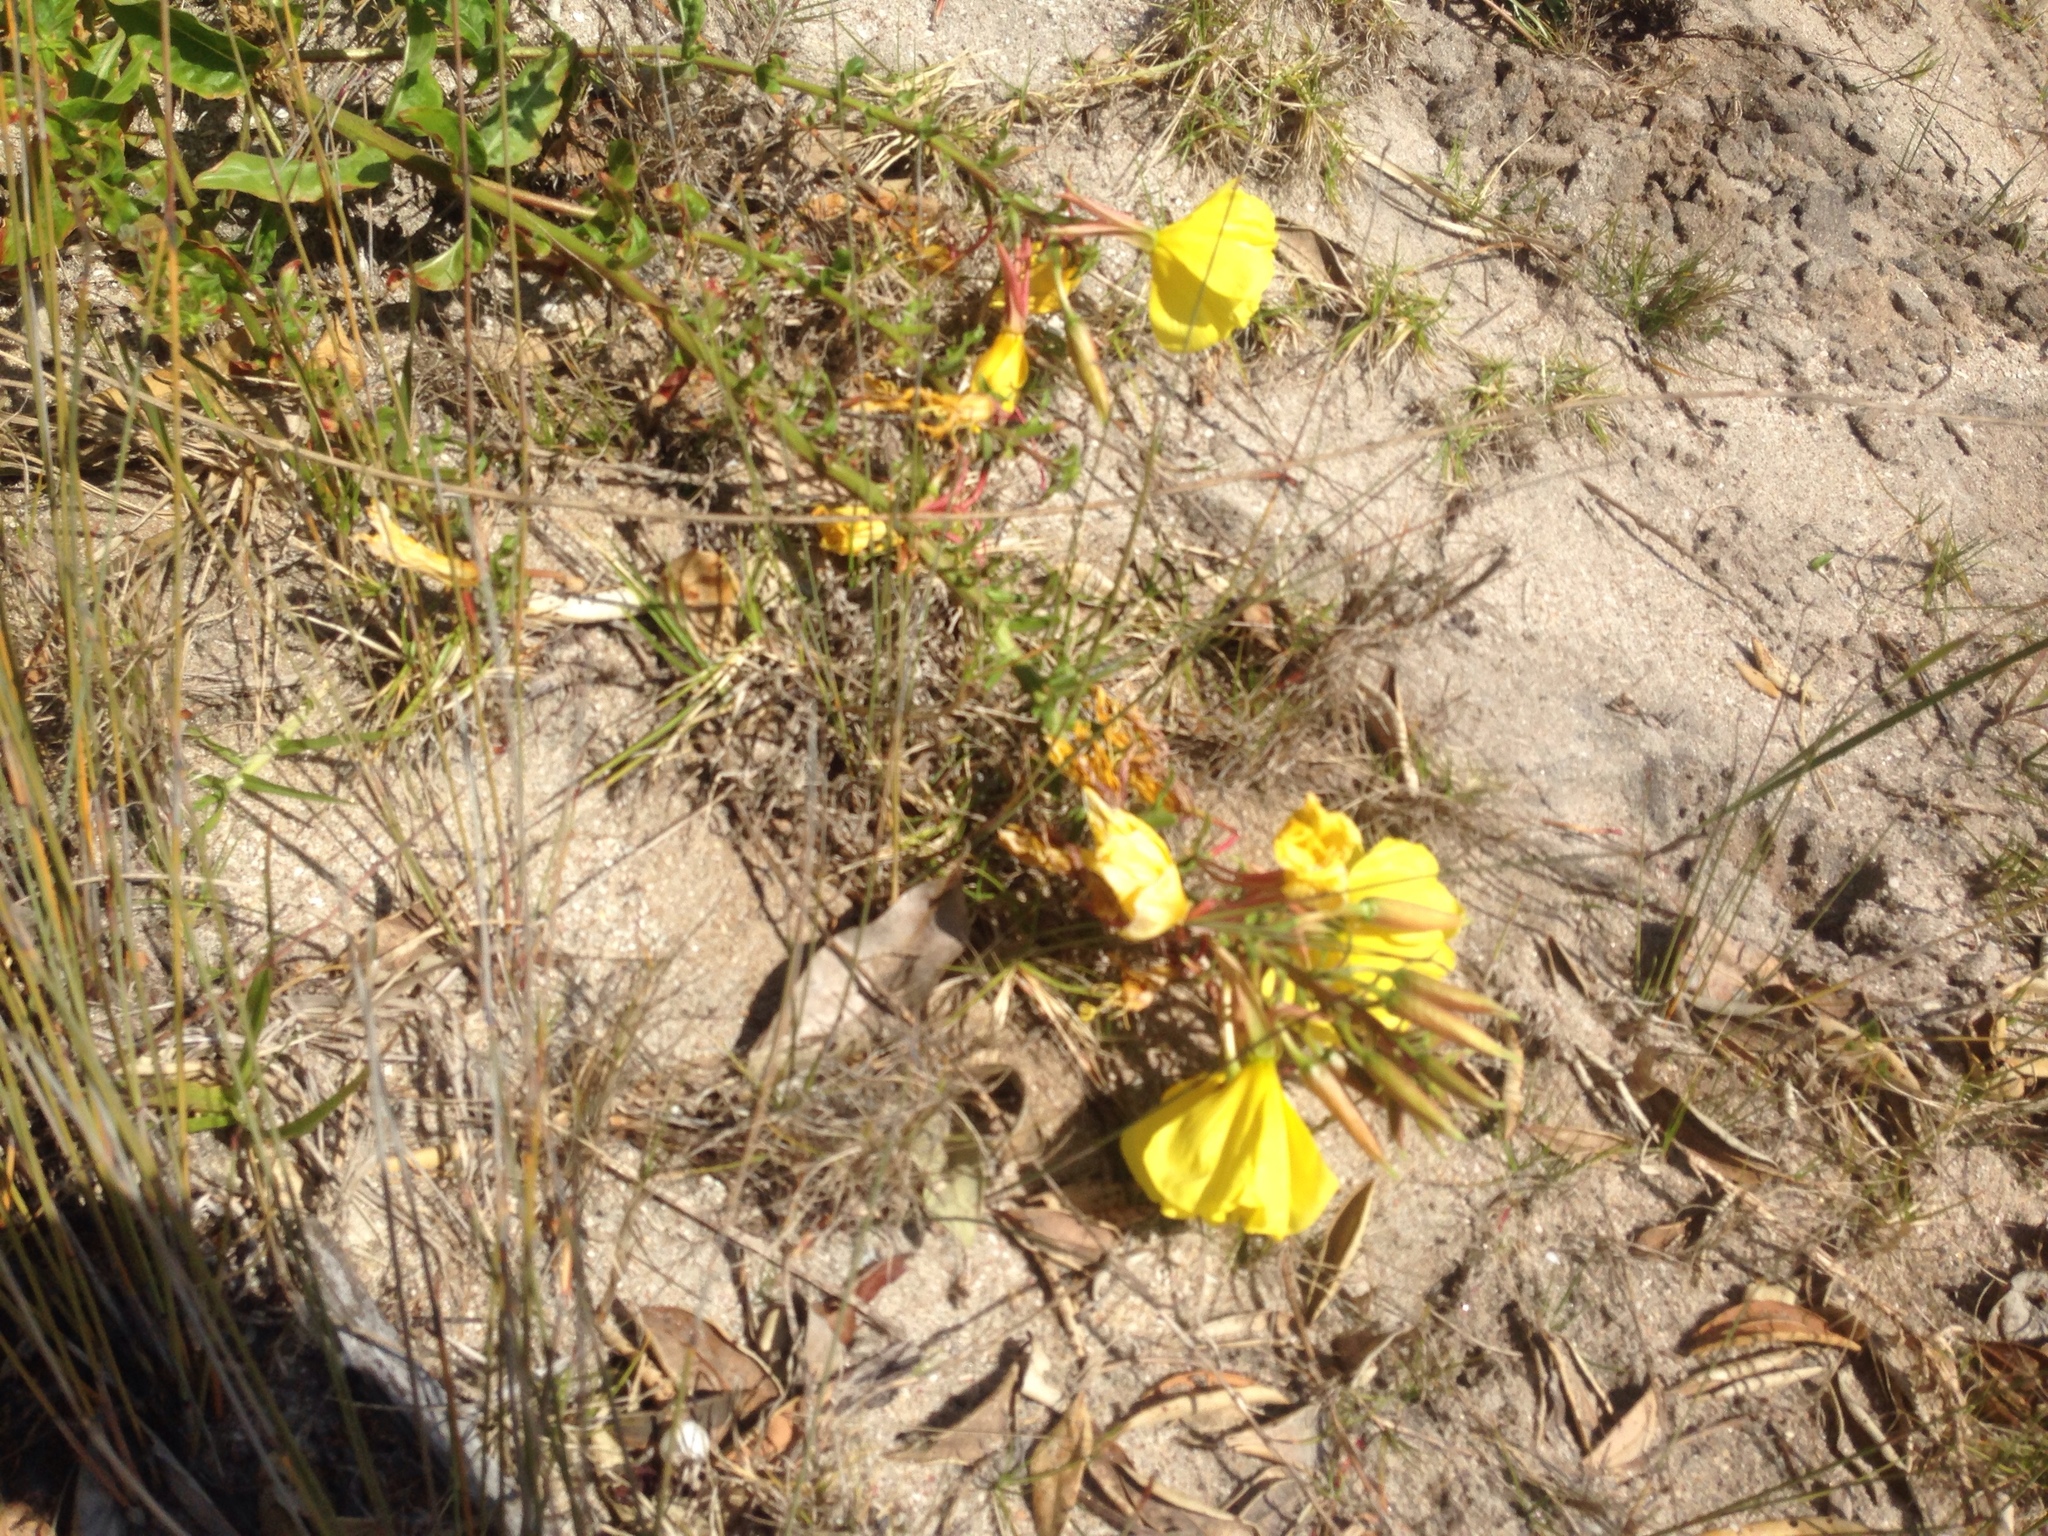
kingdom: Plantae
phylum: Tracheophyta
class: Magnoliopsida
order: Myrtales
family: Onagraceae
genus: Oenothera
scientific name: Oenothera glazioviana
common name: Large-flowered evening-primrose
